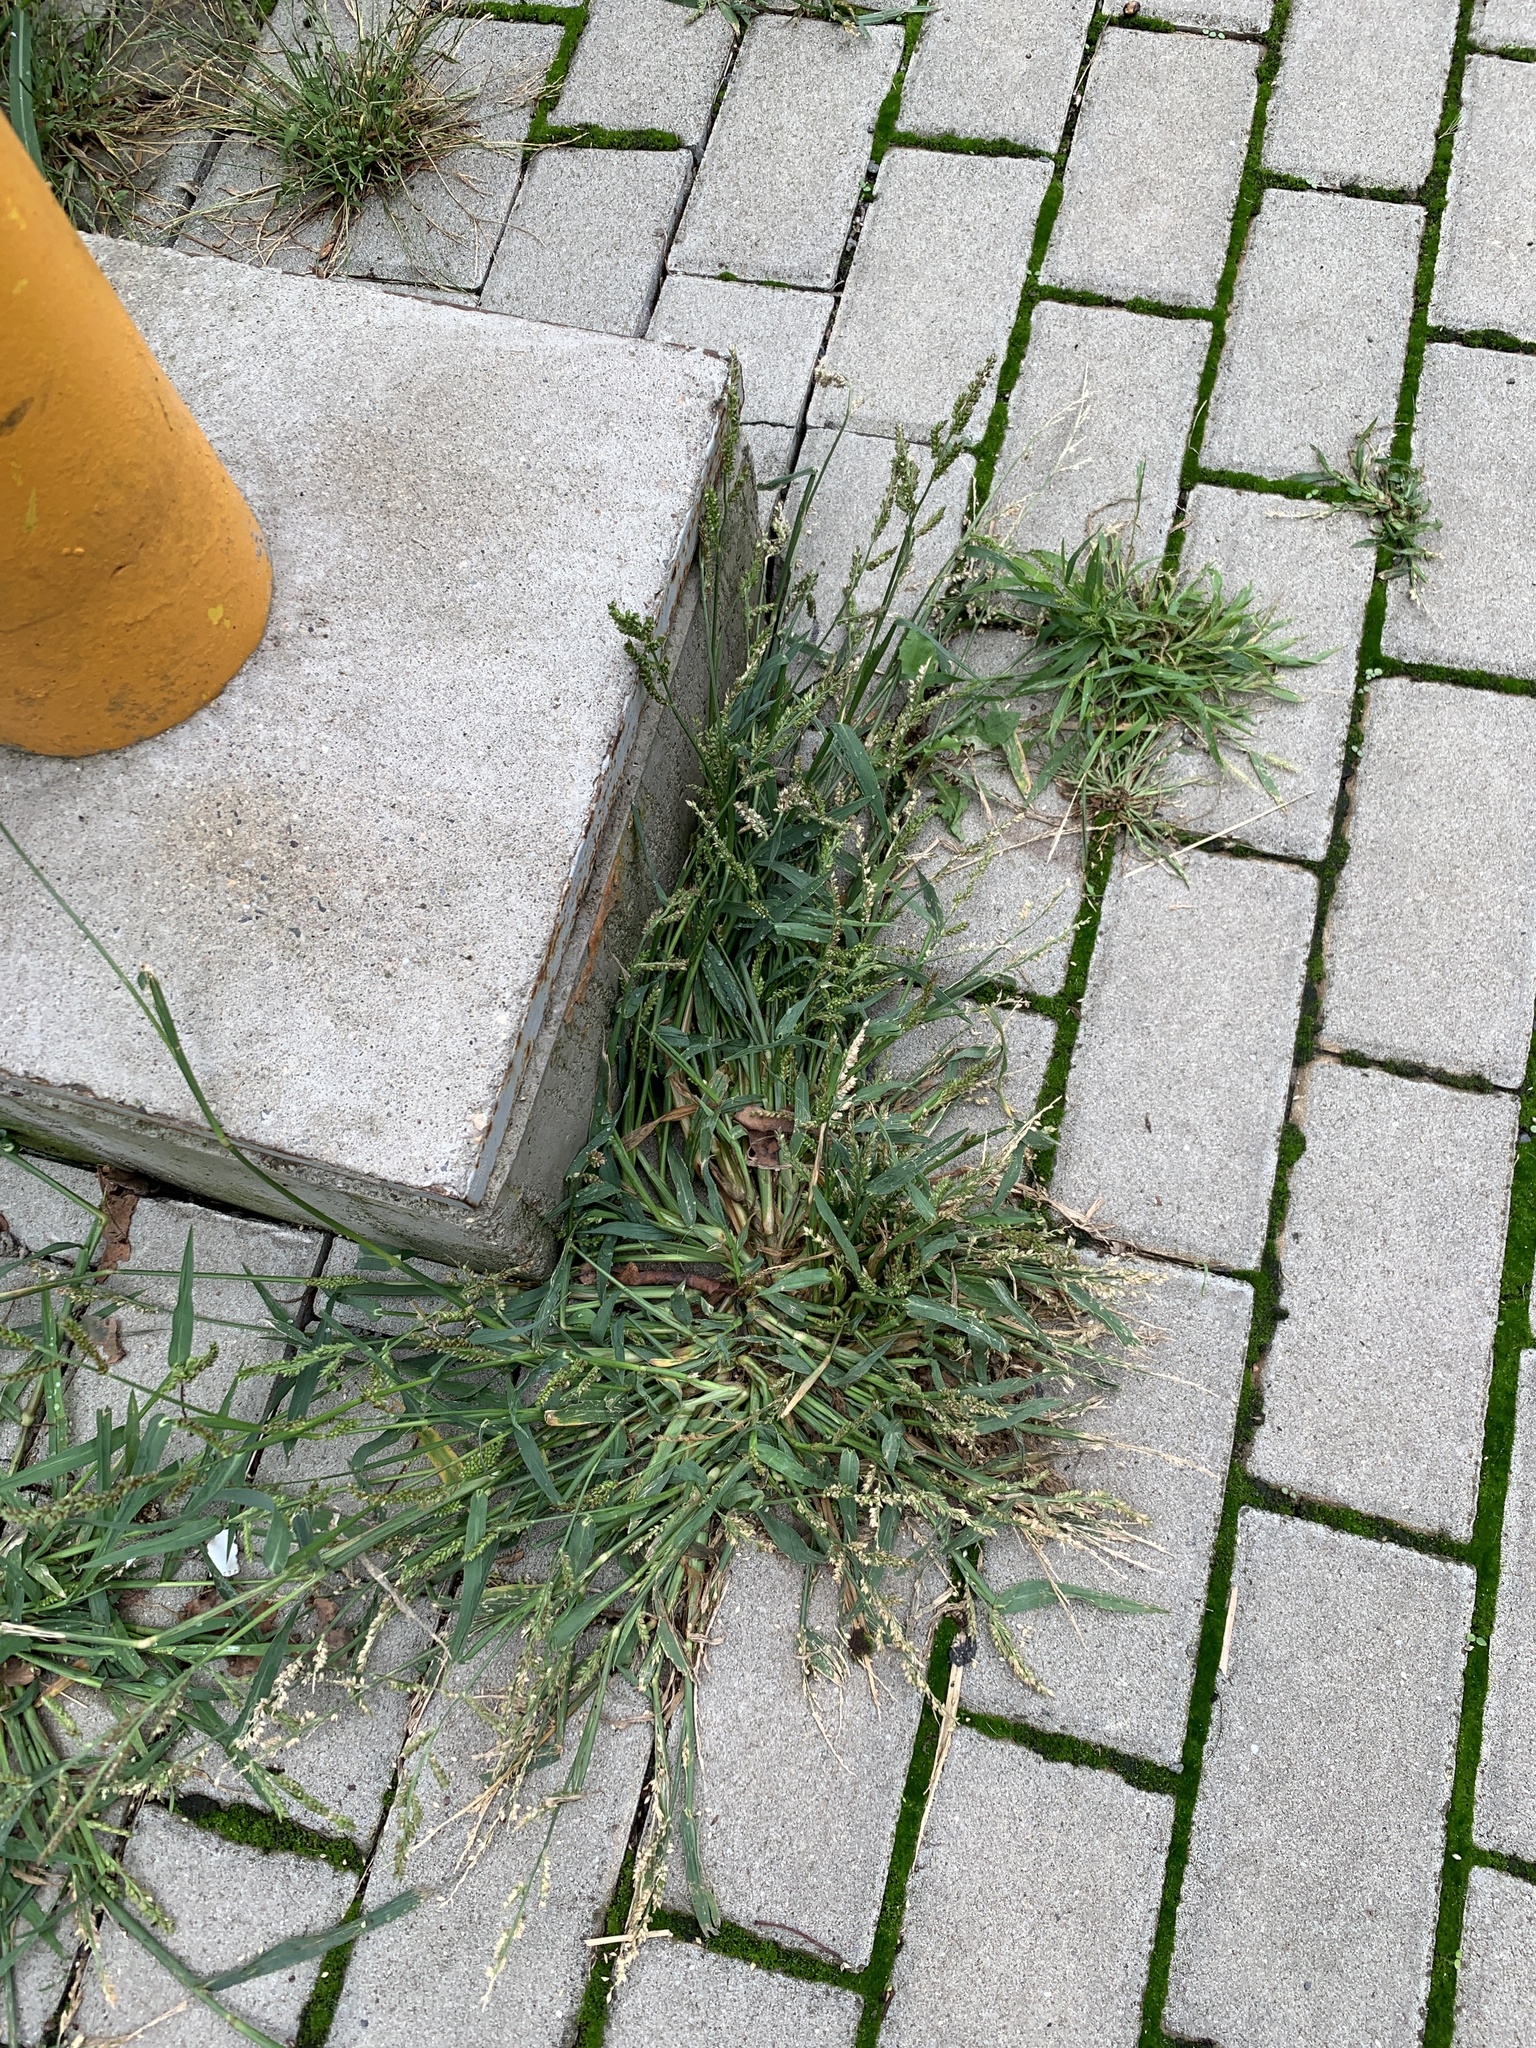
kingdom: Plantae
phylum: Tracheophyta
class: Liliopsida
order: Poales
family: Poaceae
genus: Echinochloa
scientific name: Echinochloa crus-galli
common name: Cockspur
